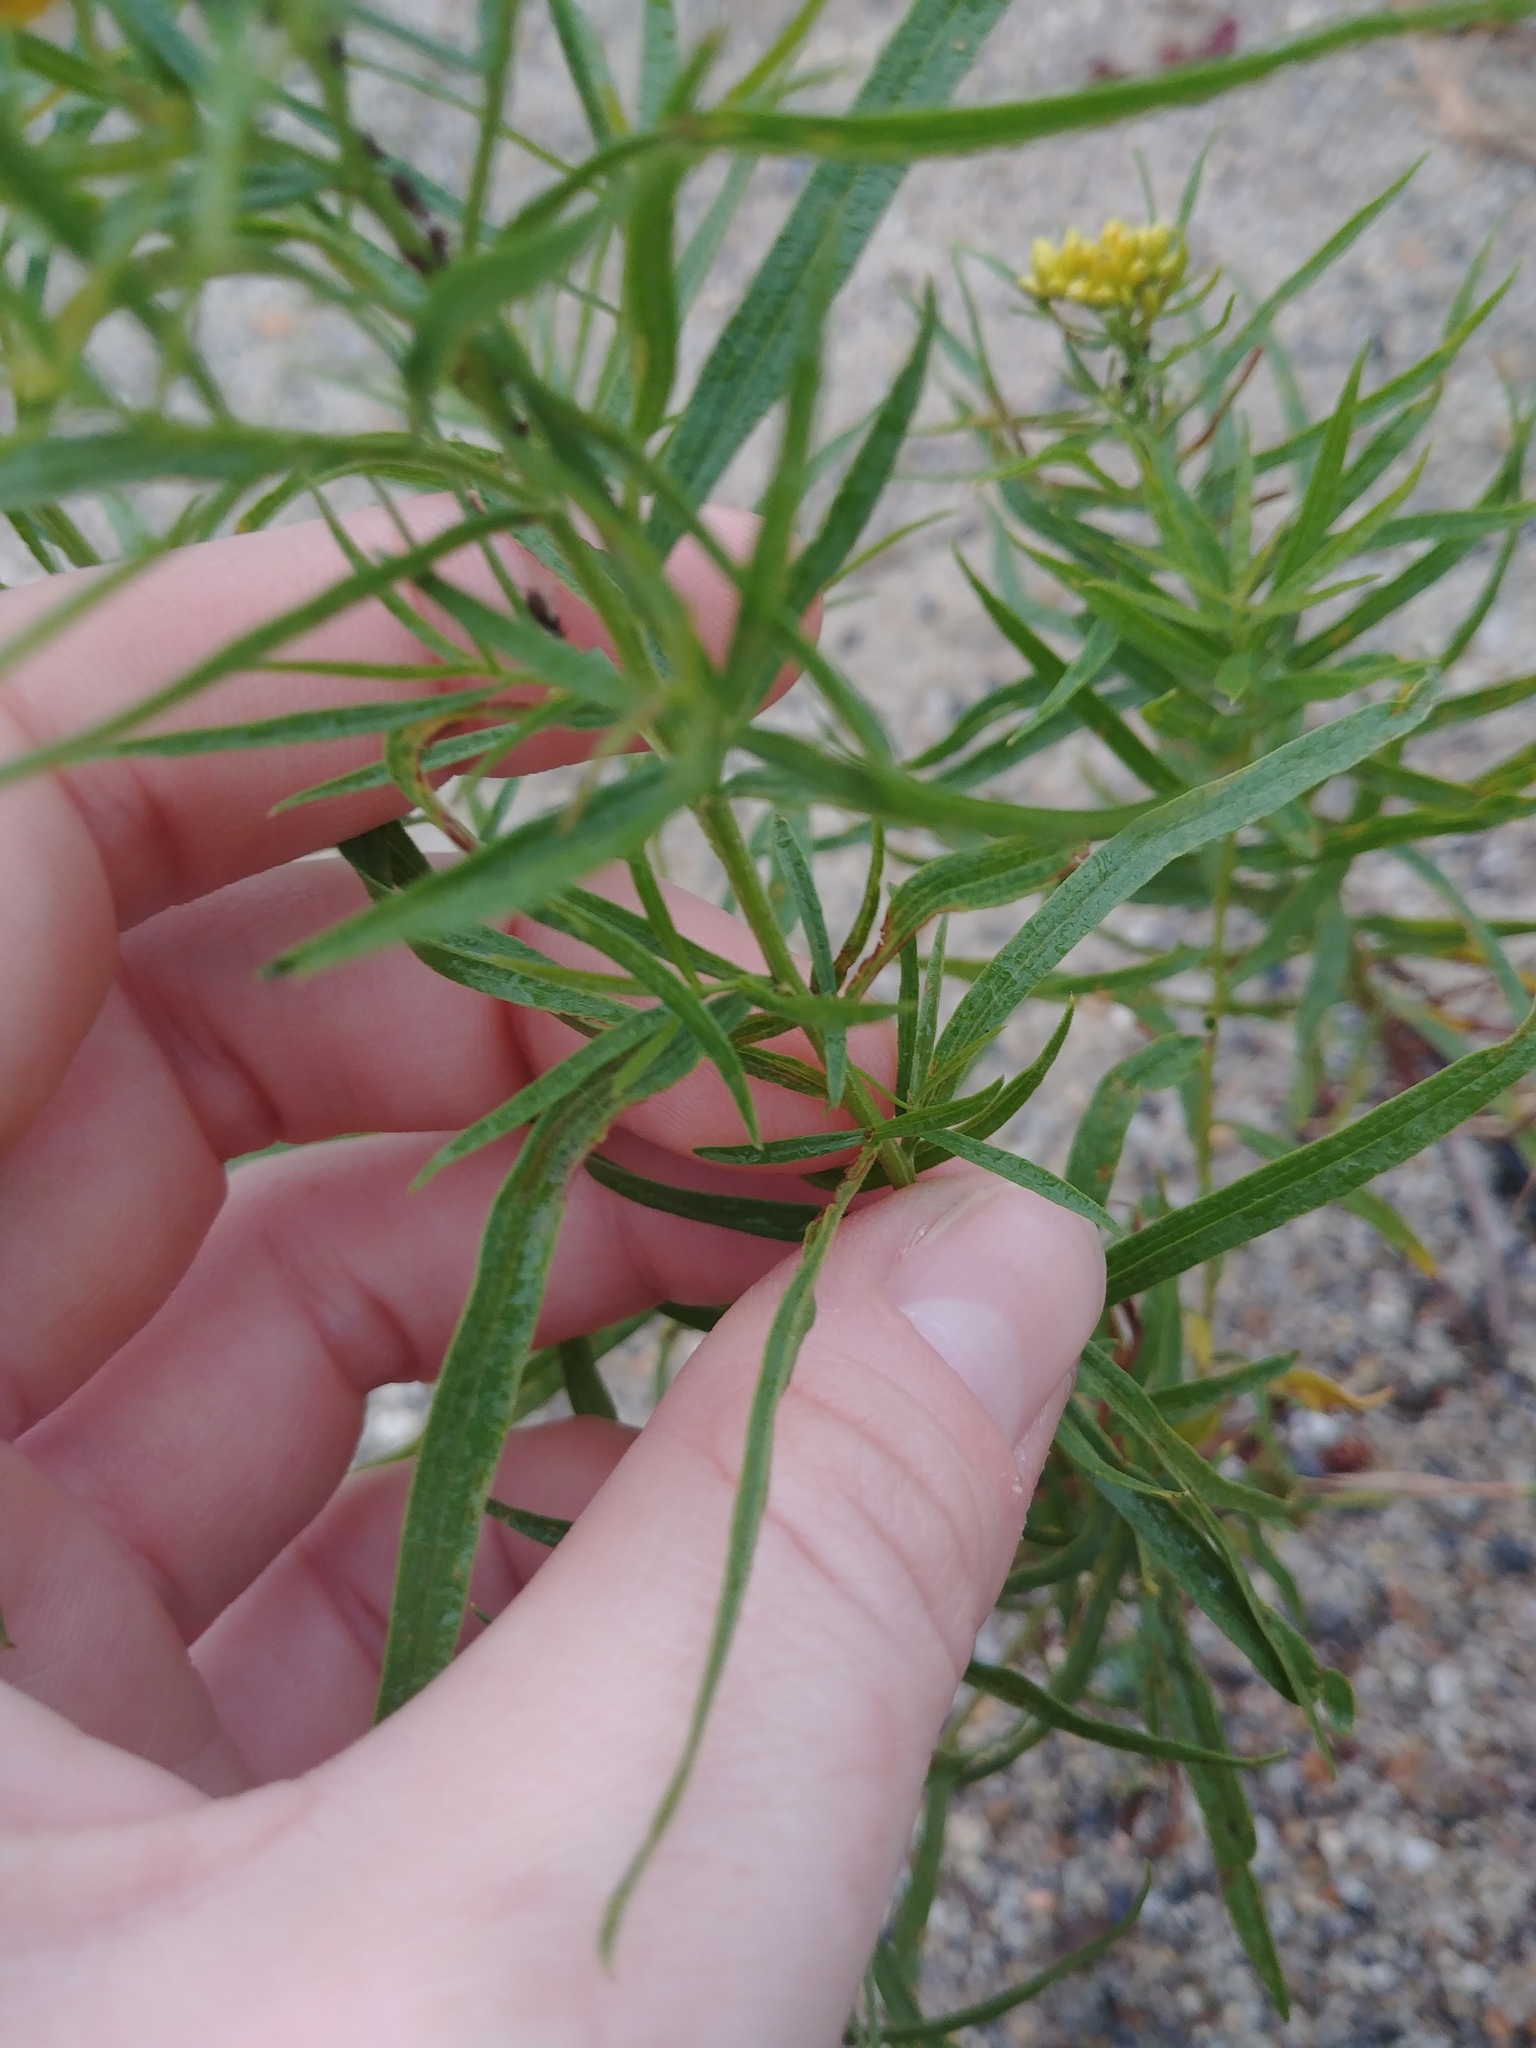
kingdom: Plantae
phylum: Tracheophyta
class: Magnoliopsida
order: Asterales
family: Asteraceae
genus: Euthamia
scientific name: Euthamia graminifolia
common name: Common goldentop
